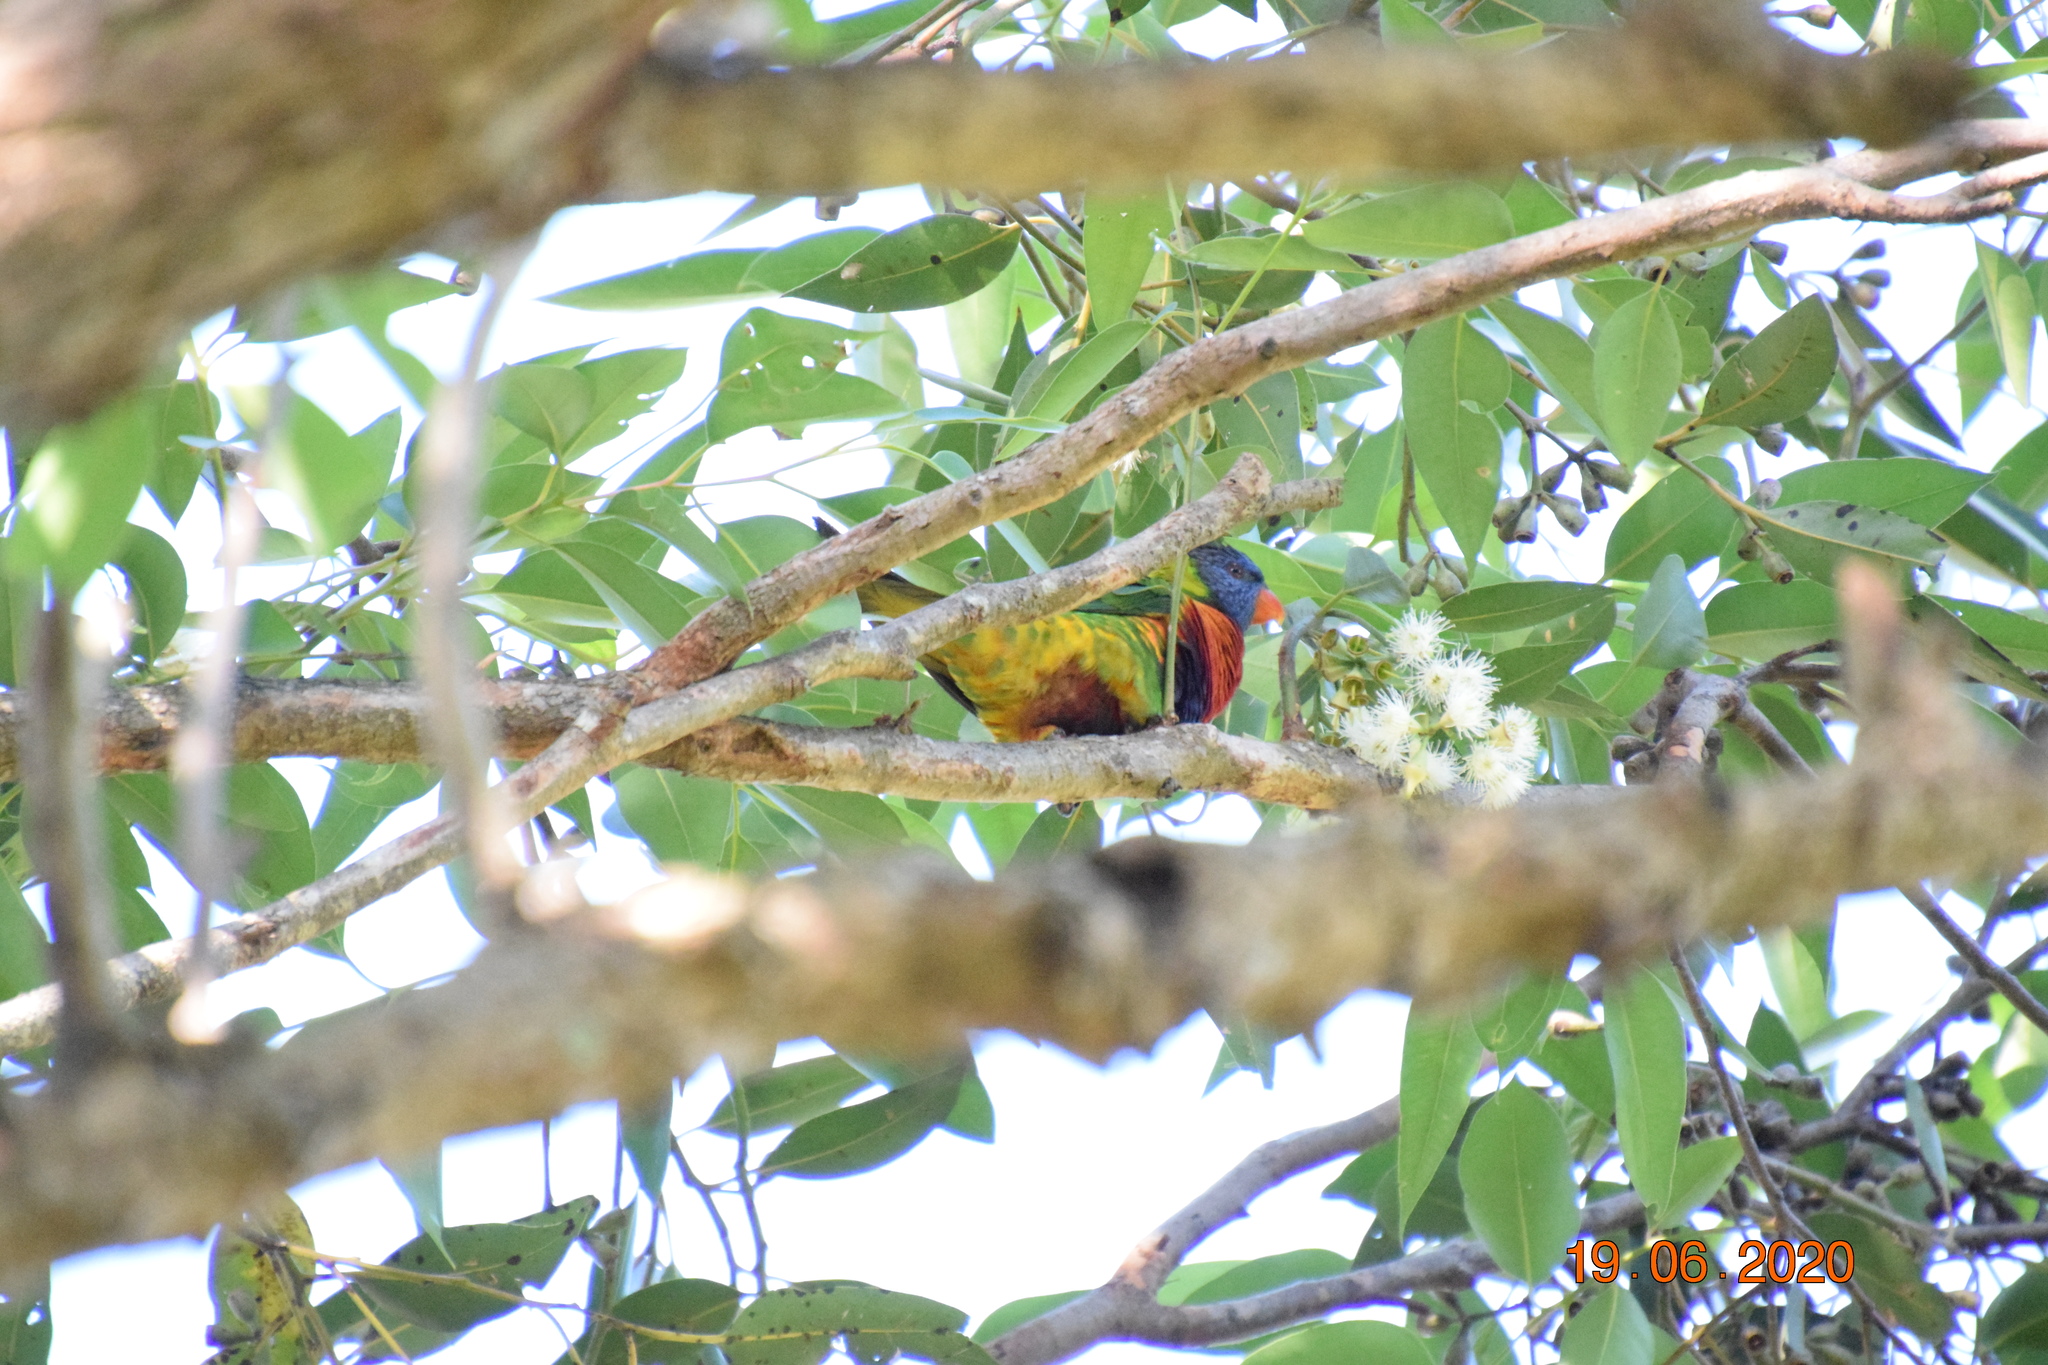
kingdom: Animalia
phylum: Chordata
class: Aves
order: Psittaciformes
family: Psittacidae
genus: Trichoglossus
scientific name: Trichoglossus haematodus
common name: Coconut lorikeet
